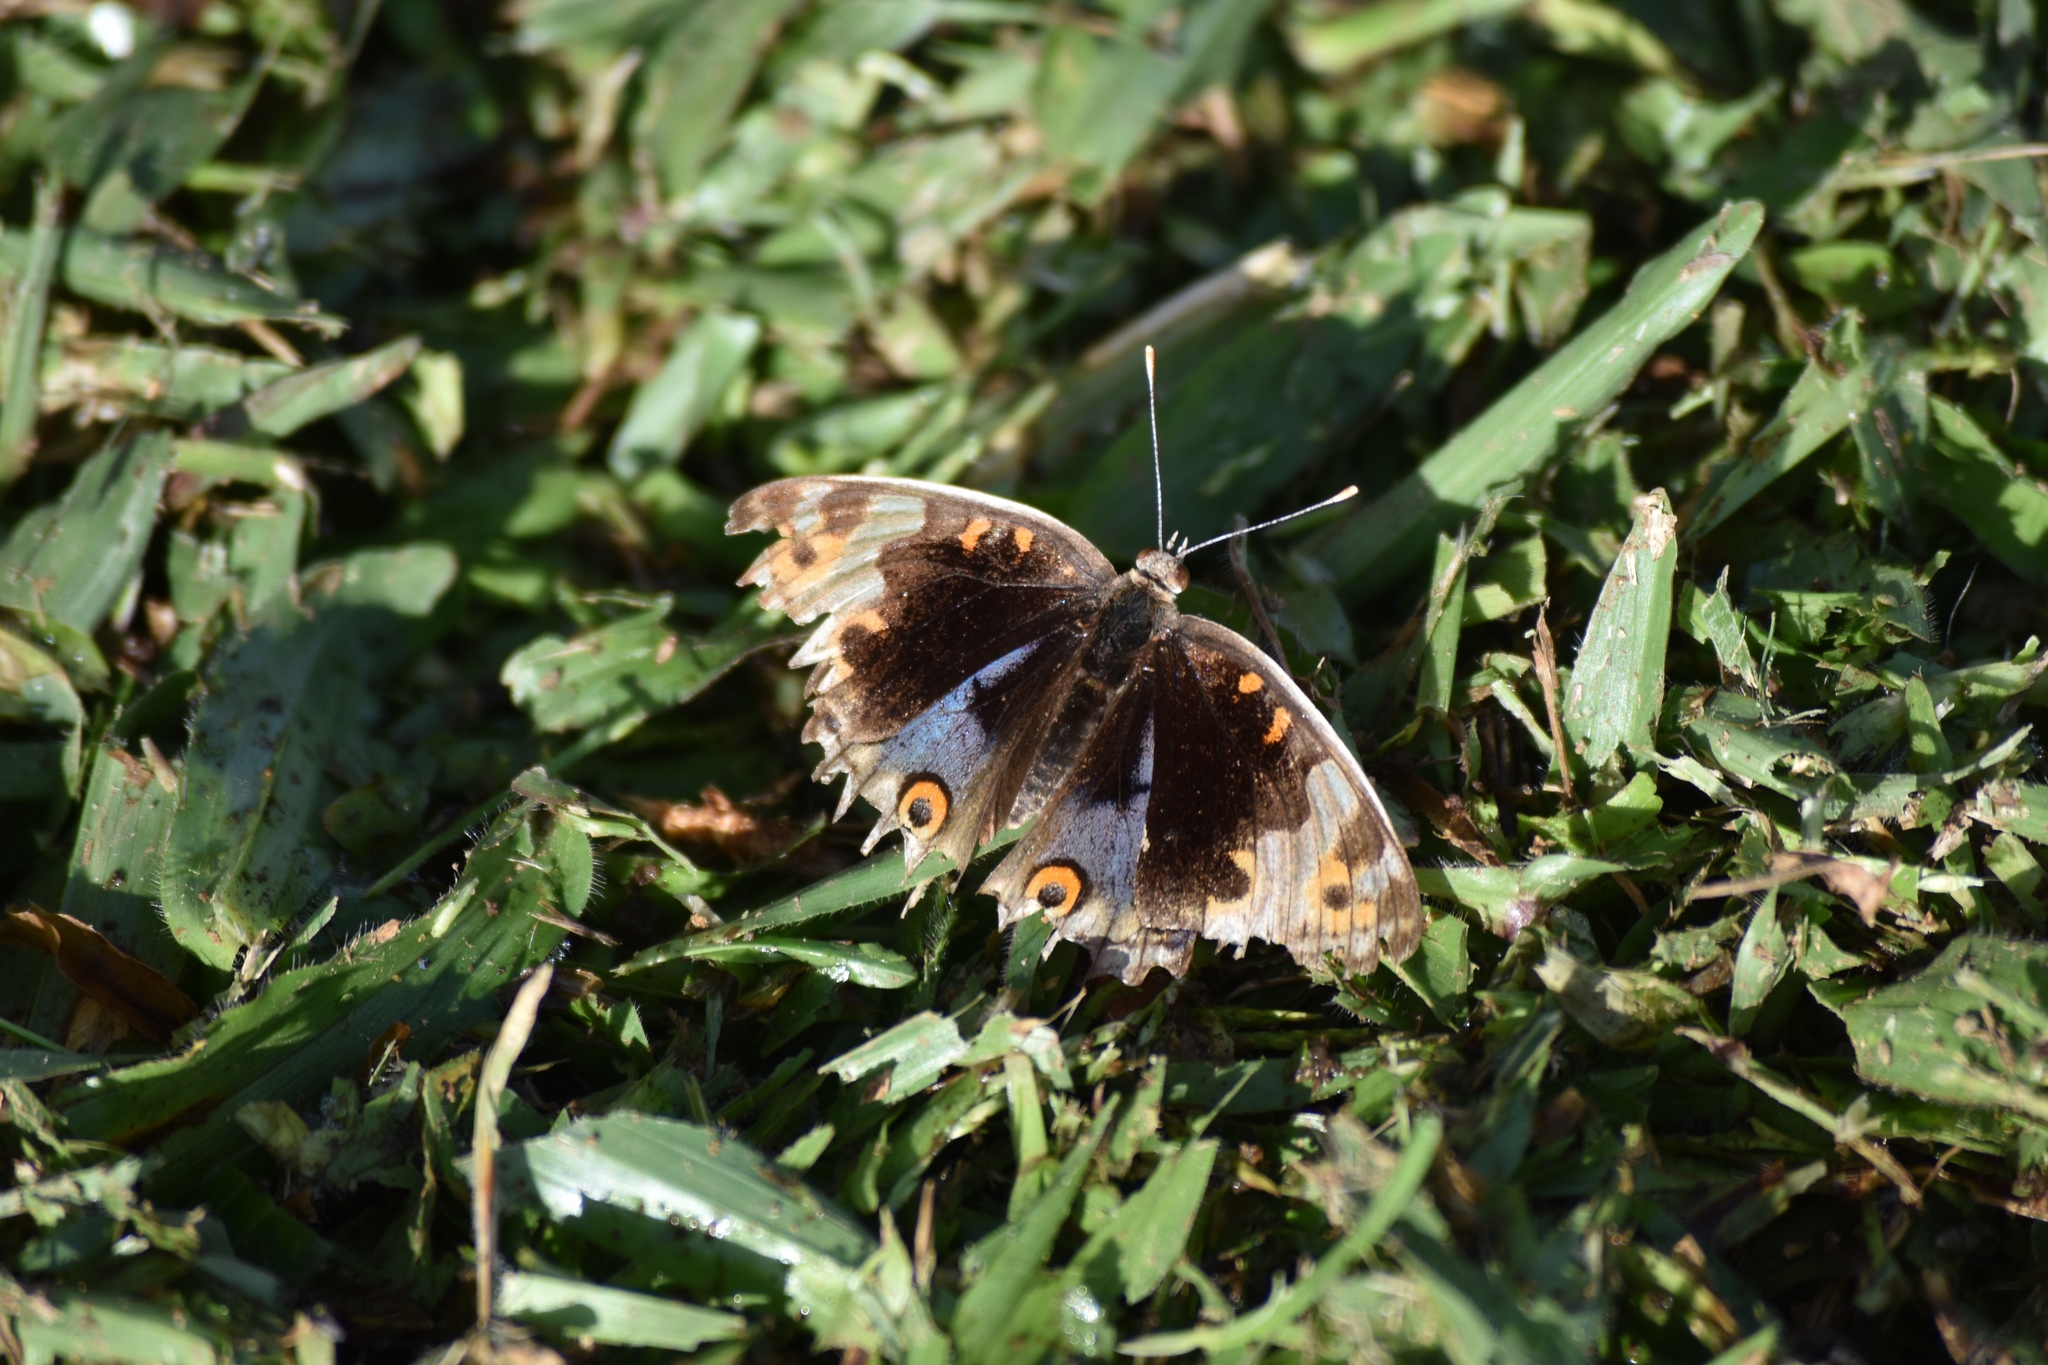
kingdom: Animalia
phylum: Arthropoda
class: Insecta
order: Lepidoptera
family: Nymphalidae
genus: Junonia
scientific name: Junonia orithya
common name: Blue pansy
